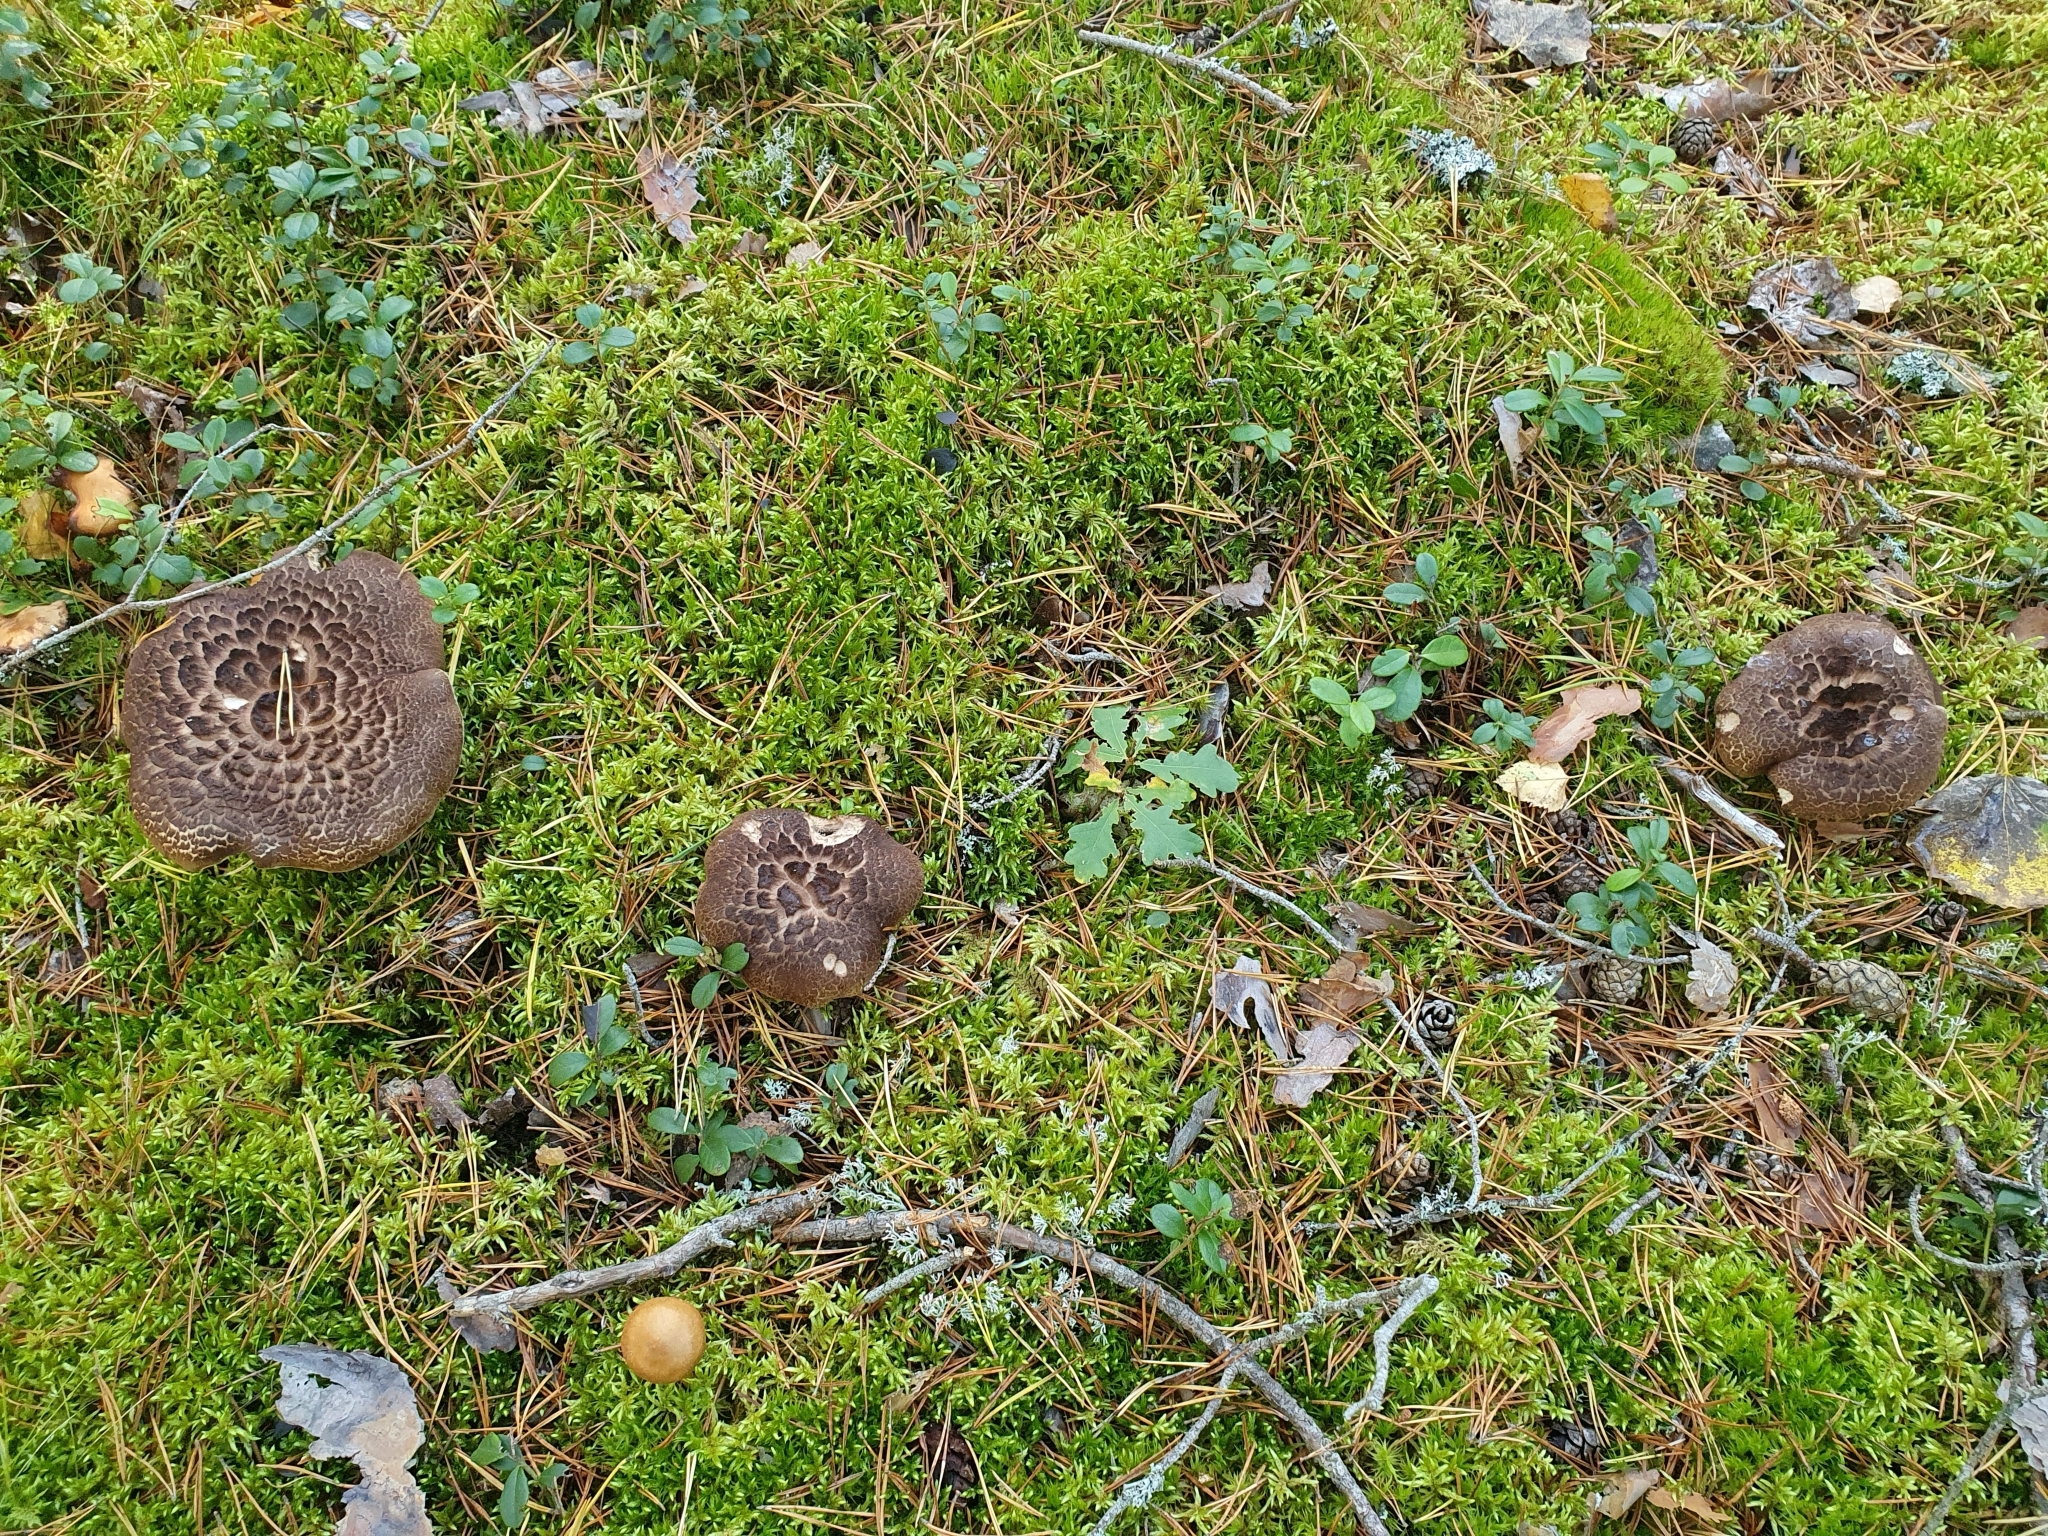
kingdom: Fungi
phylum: Basidiomycota
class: Agaricomycetes
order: Thelephorales
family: Bankeraceae
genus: Sarcodon
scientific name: Sarcodon squamosus
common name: Scaly tooth
